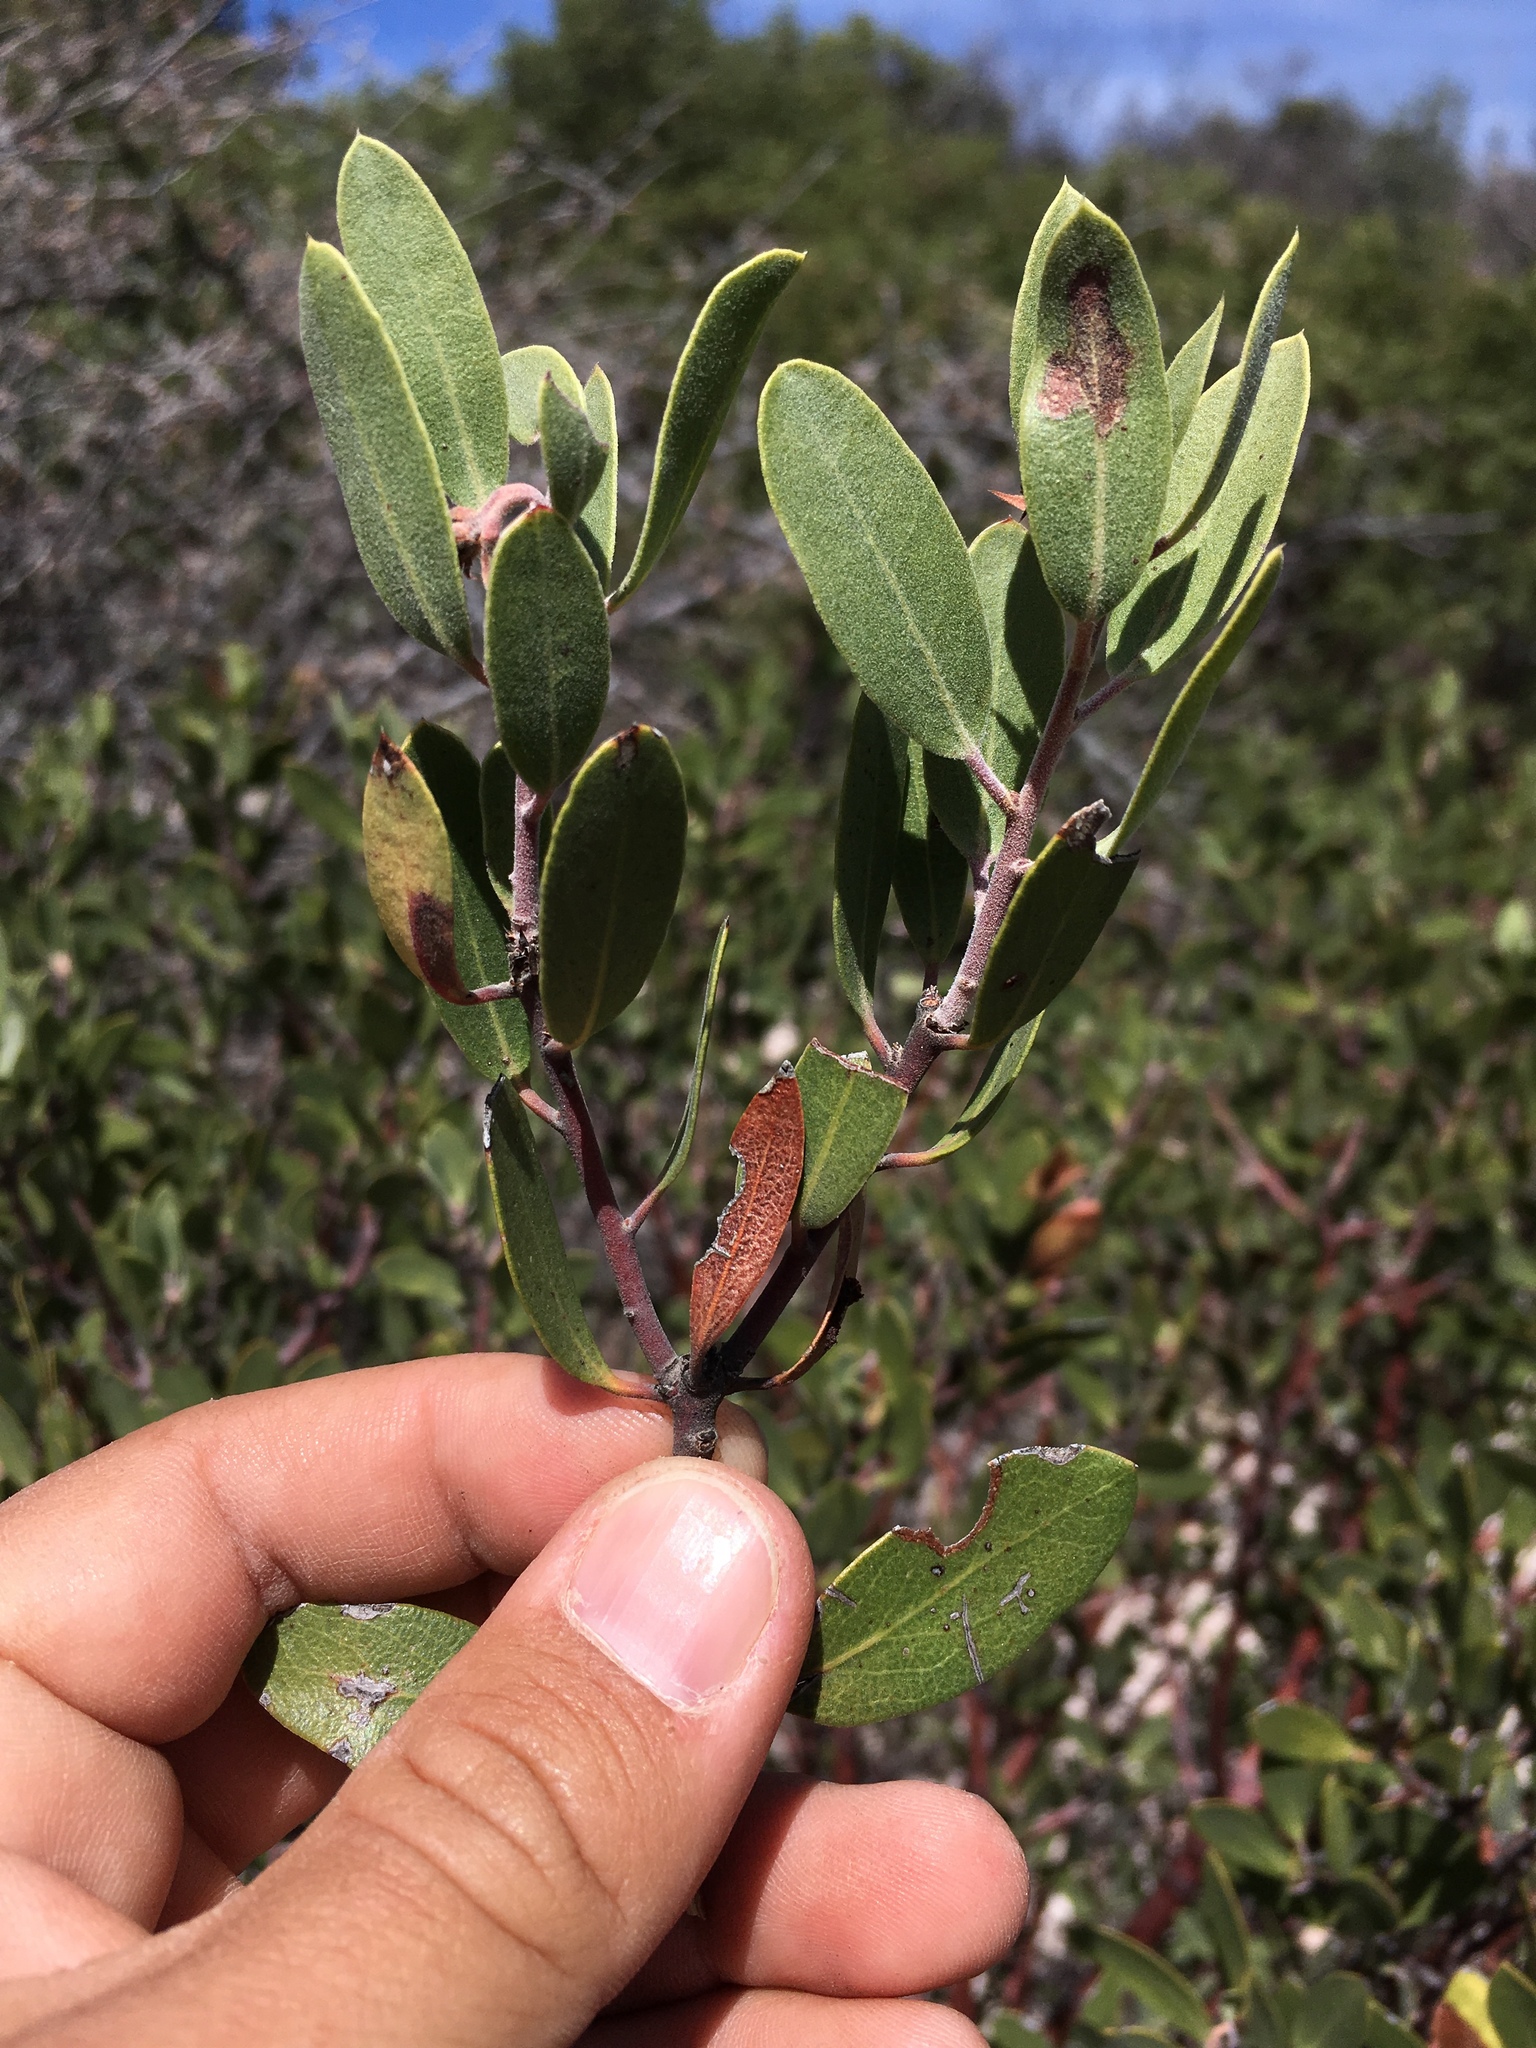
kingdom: Plantae
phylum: Tracheophyta
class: Magnoliopsida
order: Ericales
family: Ericaceae
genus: Arctostaphylos
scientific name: Arctostaphylos pungens
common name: Mexican manzanita
